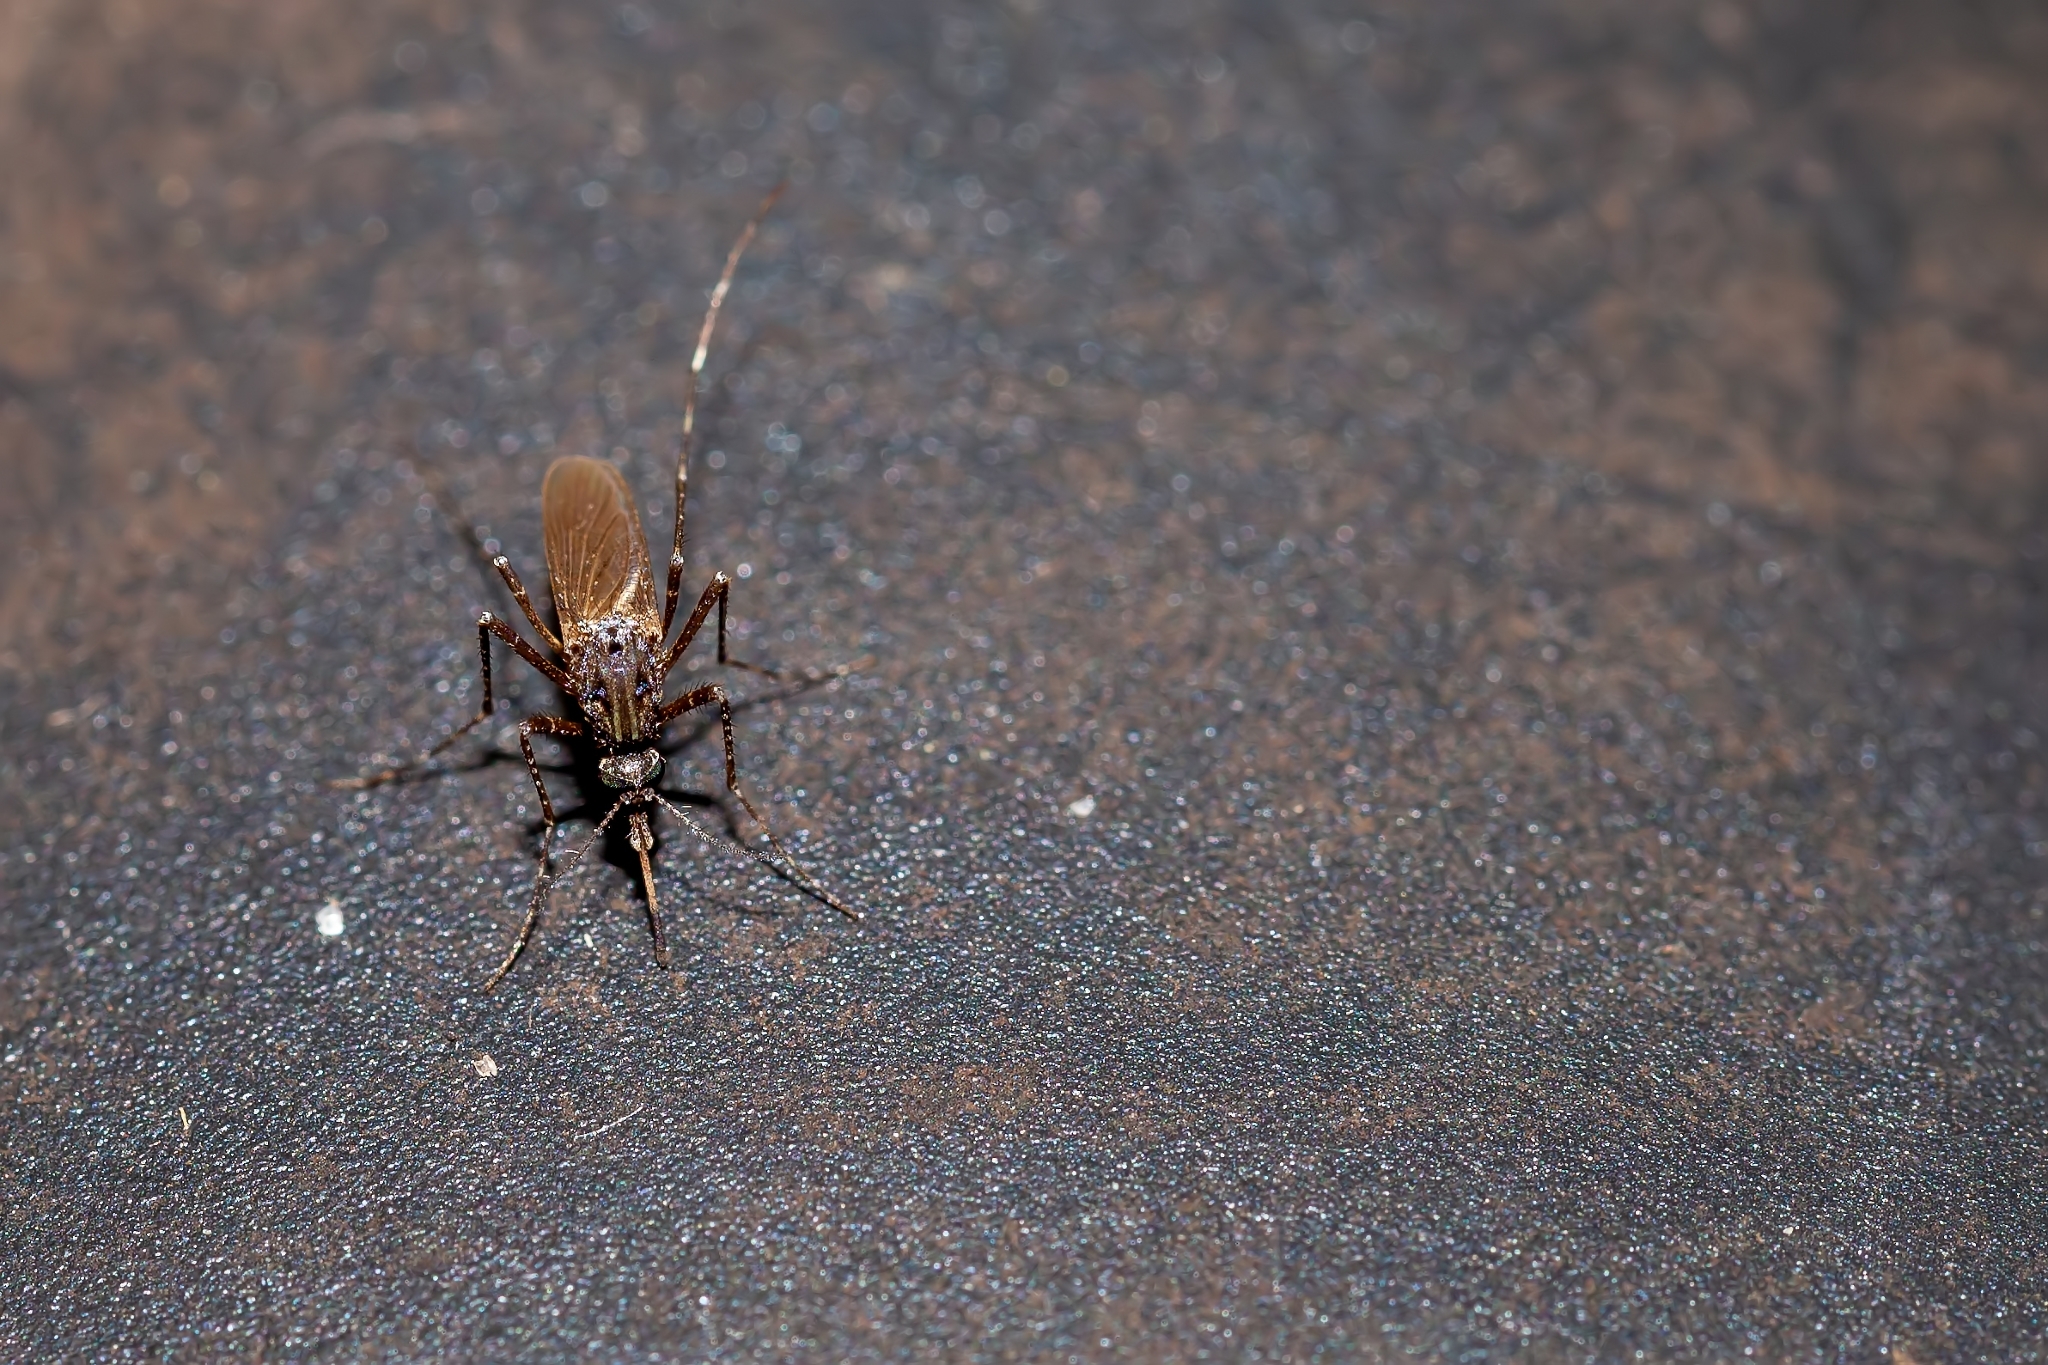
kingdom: Animalia
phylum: Arthropoda
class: Insecta
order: Diptera
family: Culicidae
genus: Psorophora
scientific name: Psorophora columbiae
